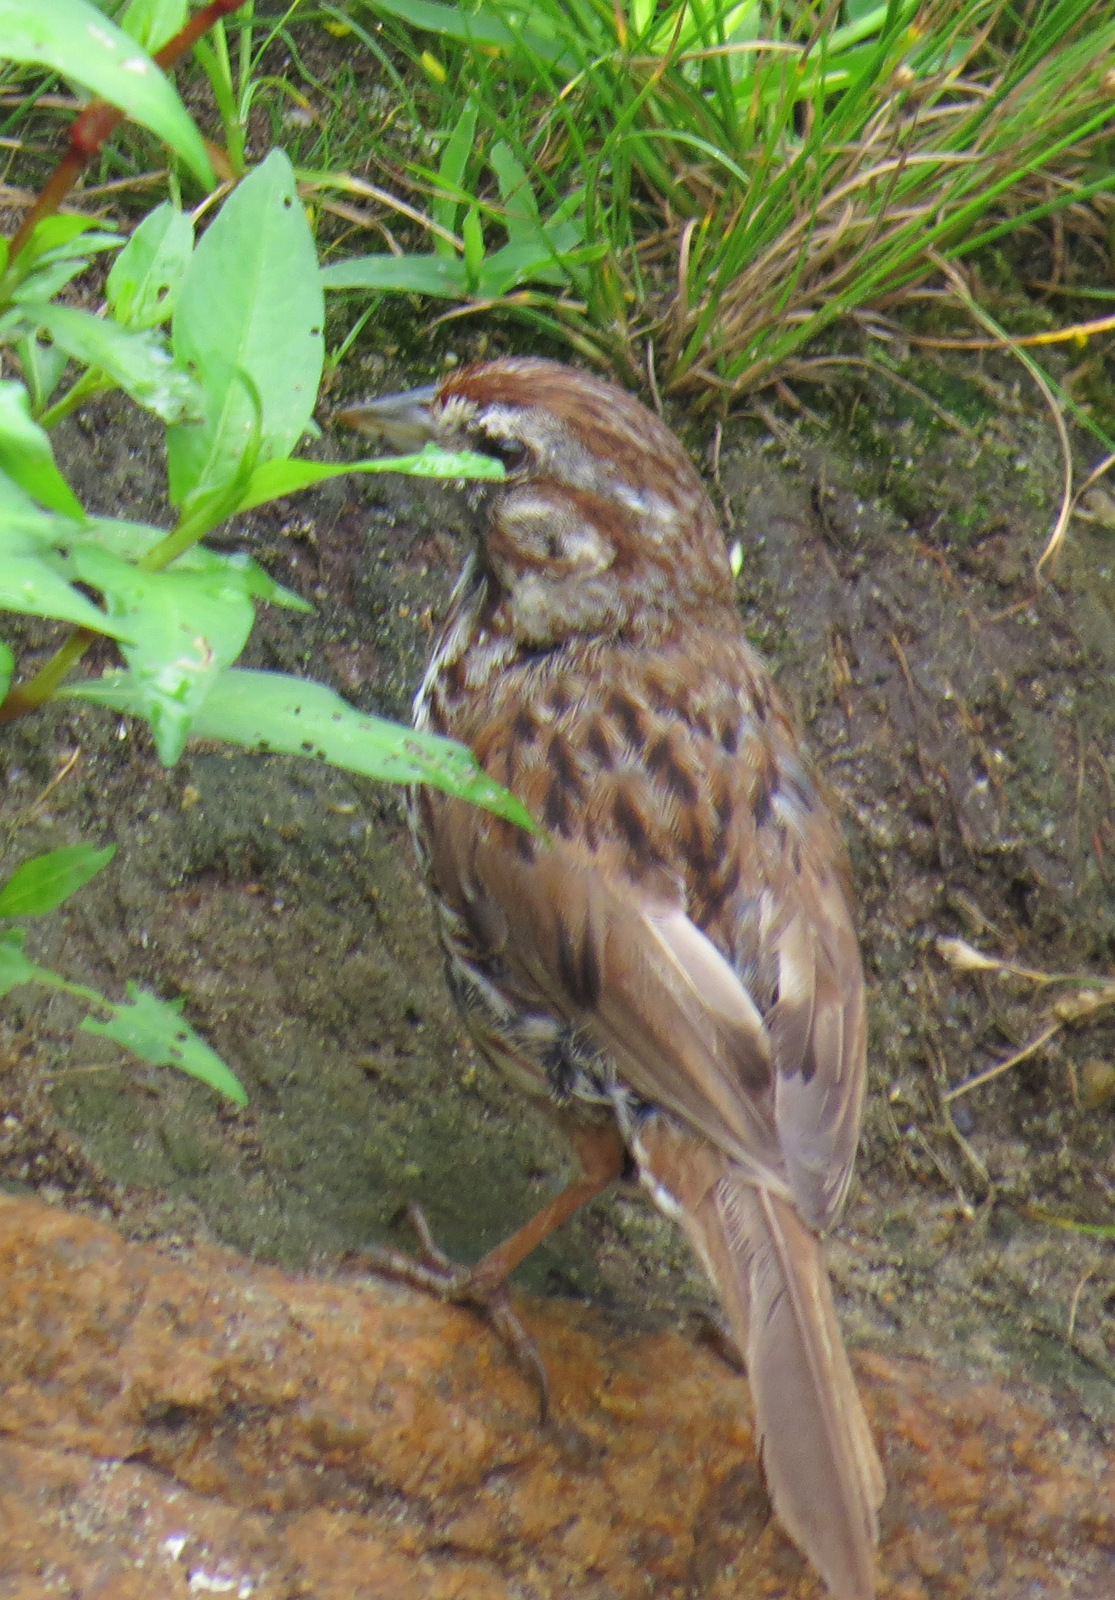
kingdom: Animalia
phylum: Chordata
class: Aves
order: Passeriformes
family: Passerellidae
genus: Melospiza
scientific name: Melospiza melodia
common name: Song sparrow
